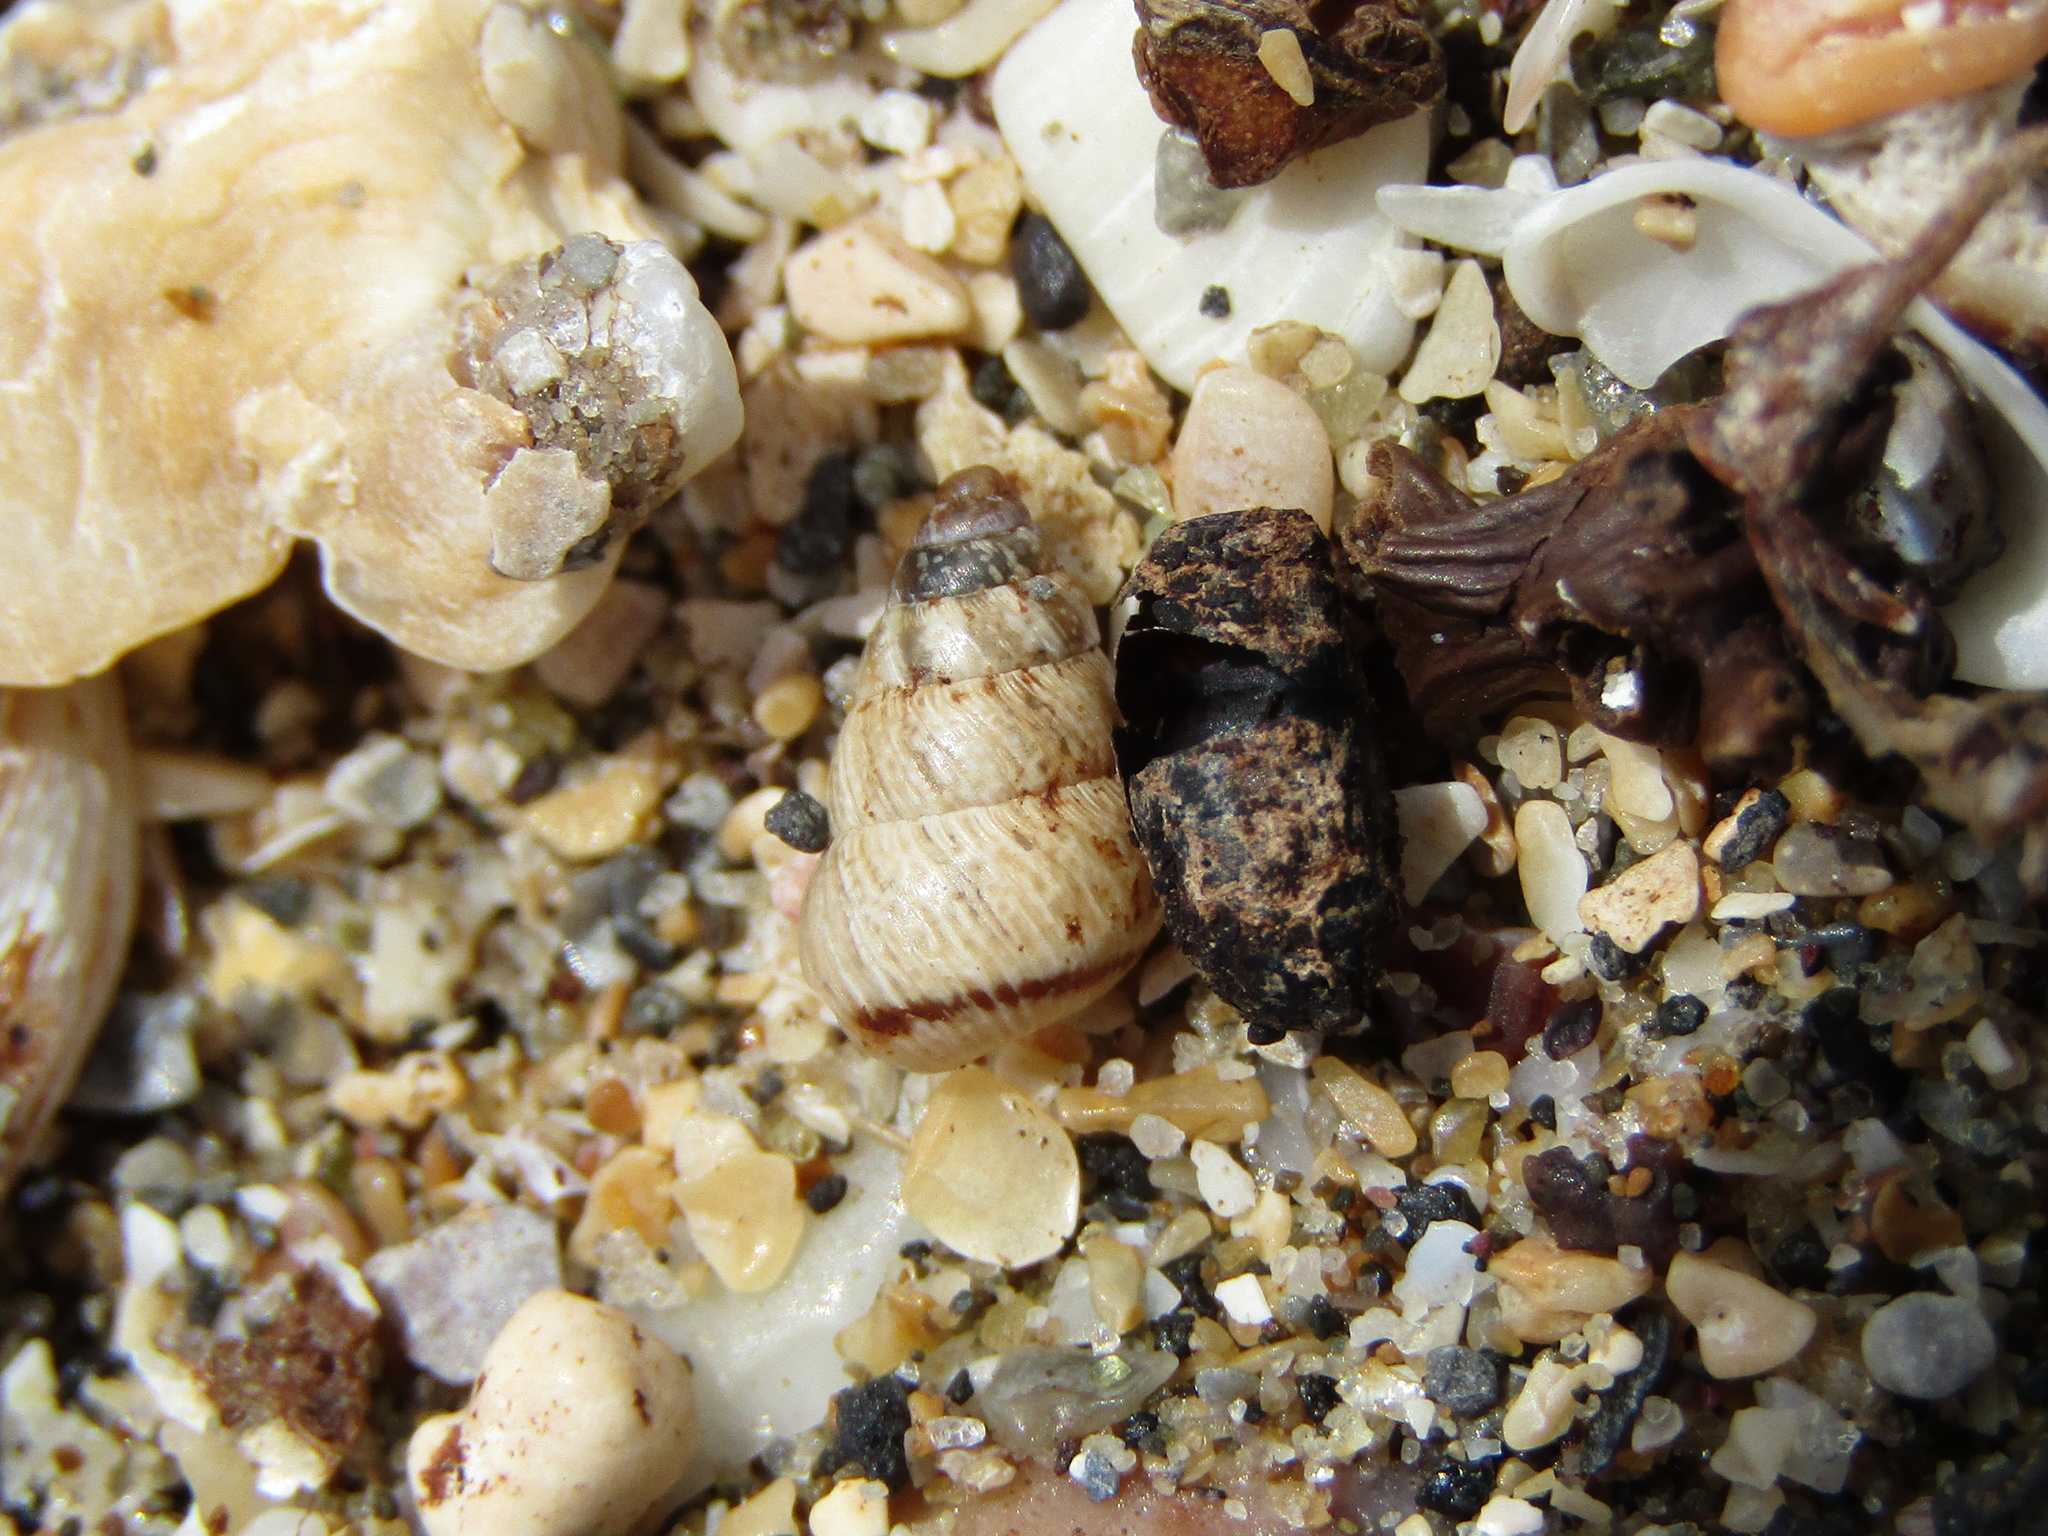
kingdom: Animalia
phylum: Mollusca
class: Gastropoda
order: Stylommatophora
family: Geomitridae
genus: Cochlicella
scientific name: Cochlicella barbara
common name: Potbellied helicellid
